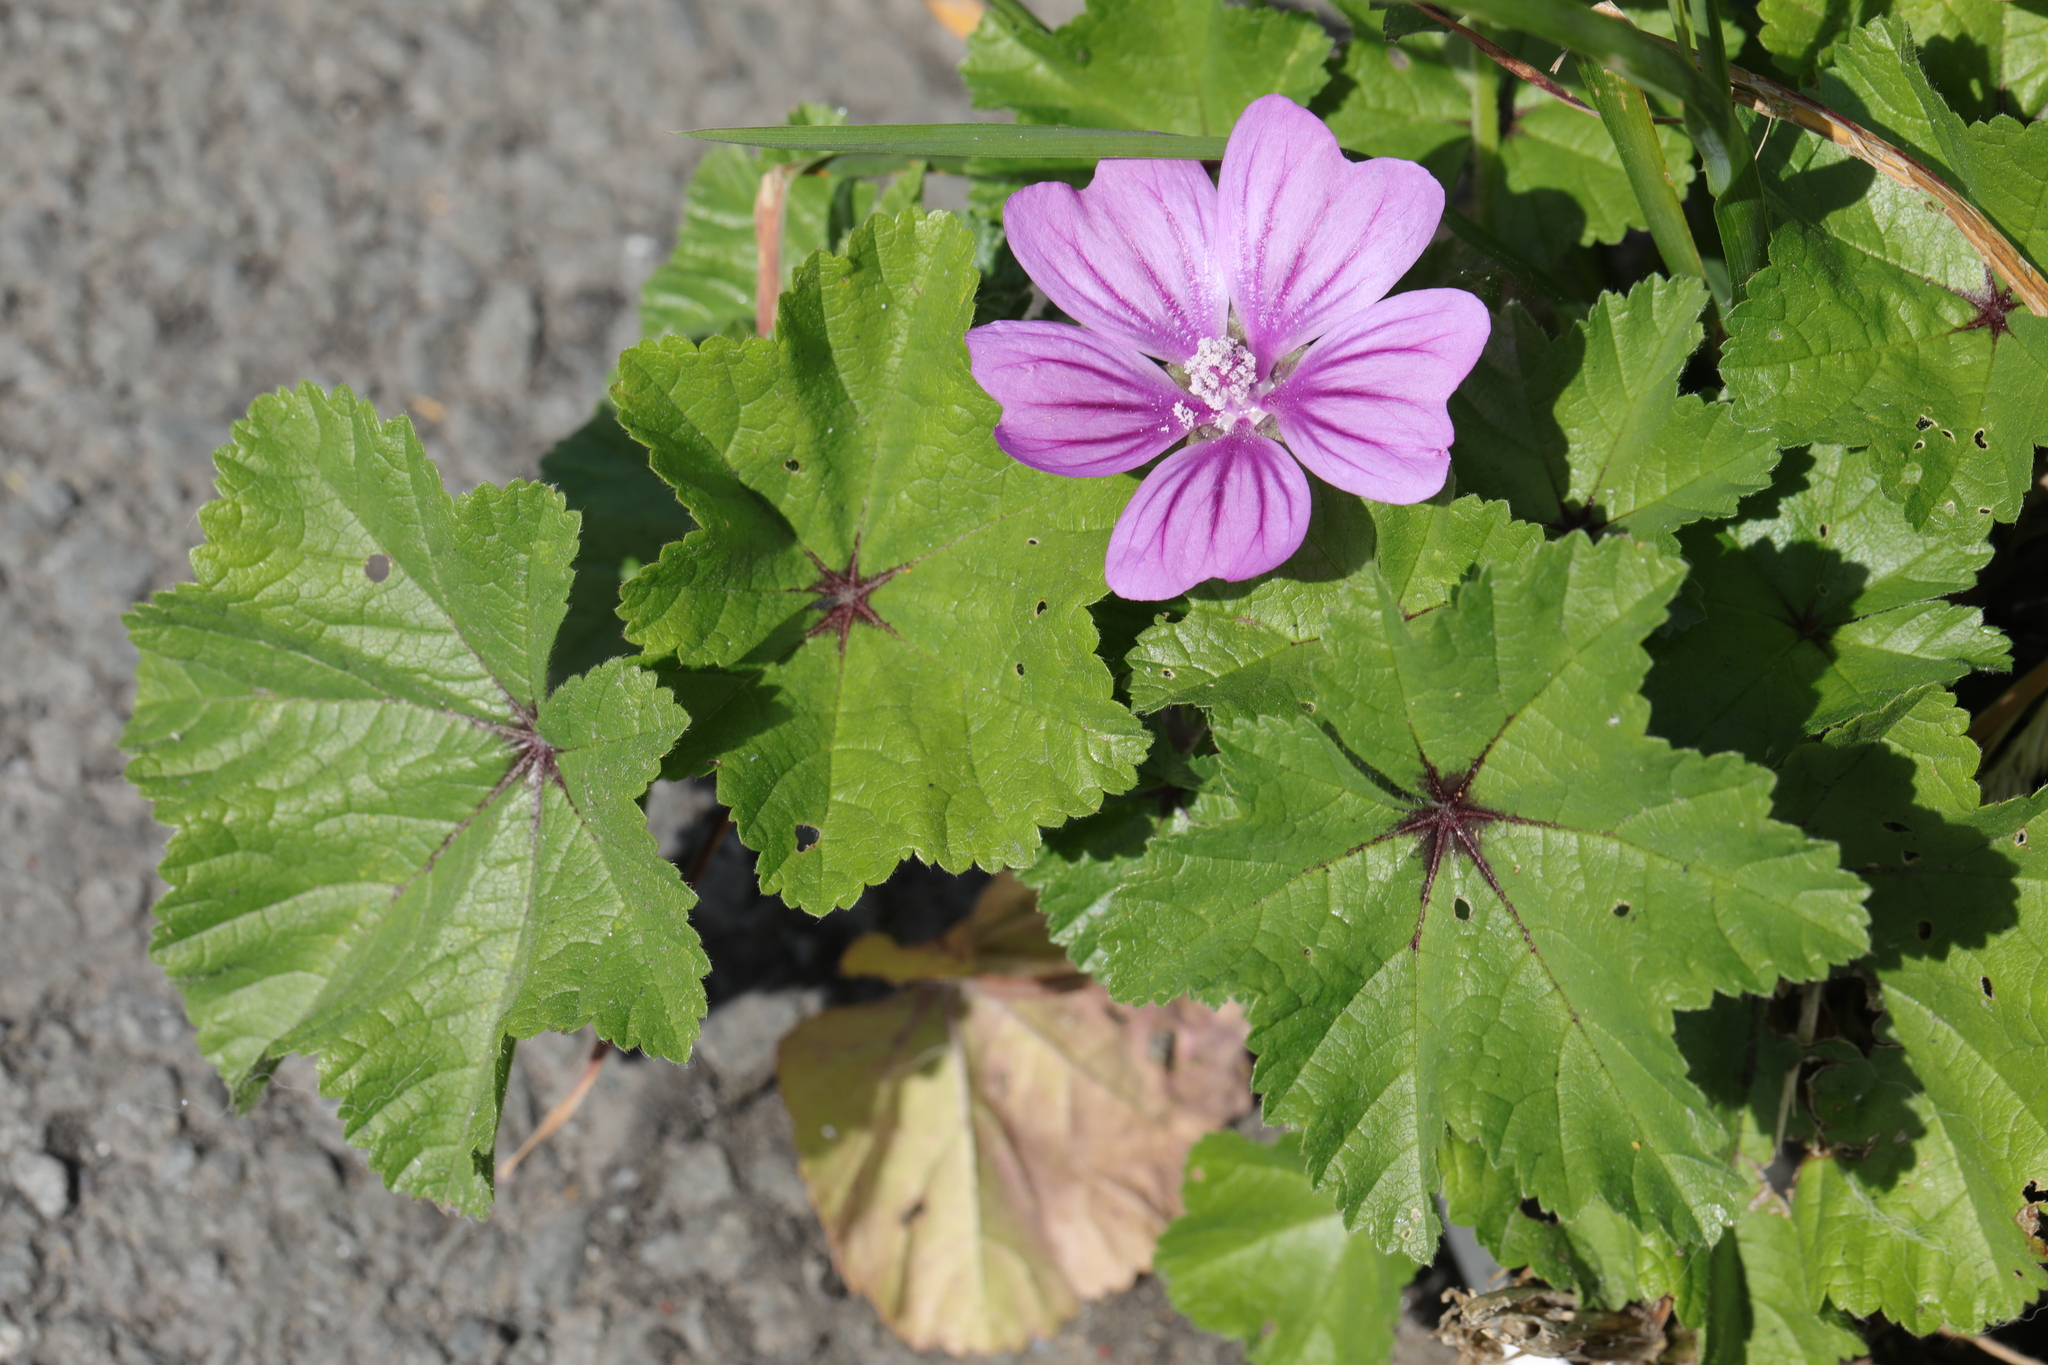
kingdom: Plantae
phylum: Tracheophyta
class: Magnoliopsida
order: Malvales
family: Malvaceae
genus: Malva
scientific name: Malva sylvestris
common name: Common mallow
